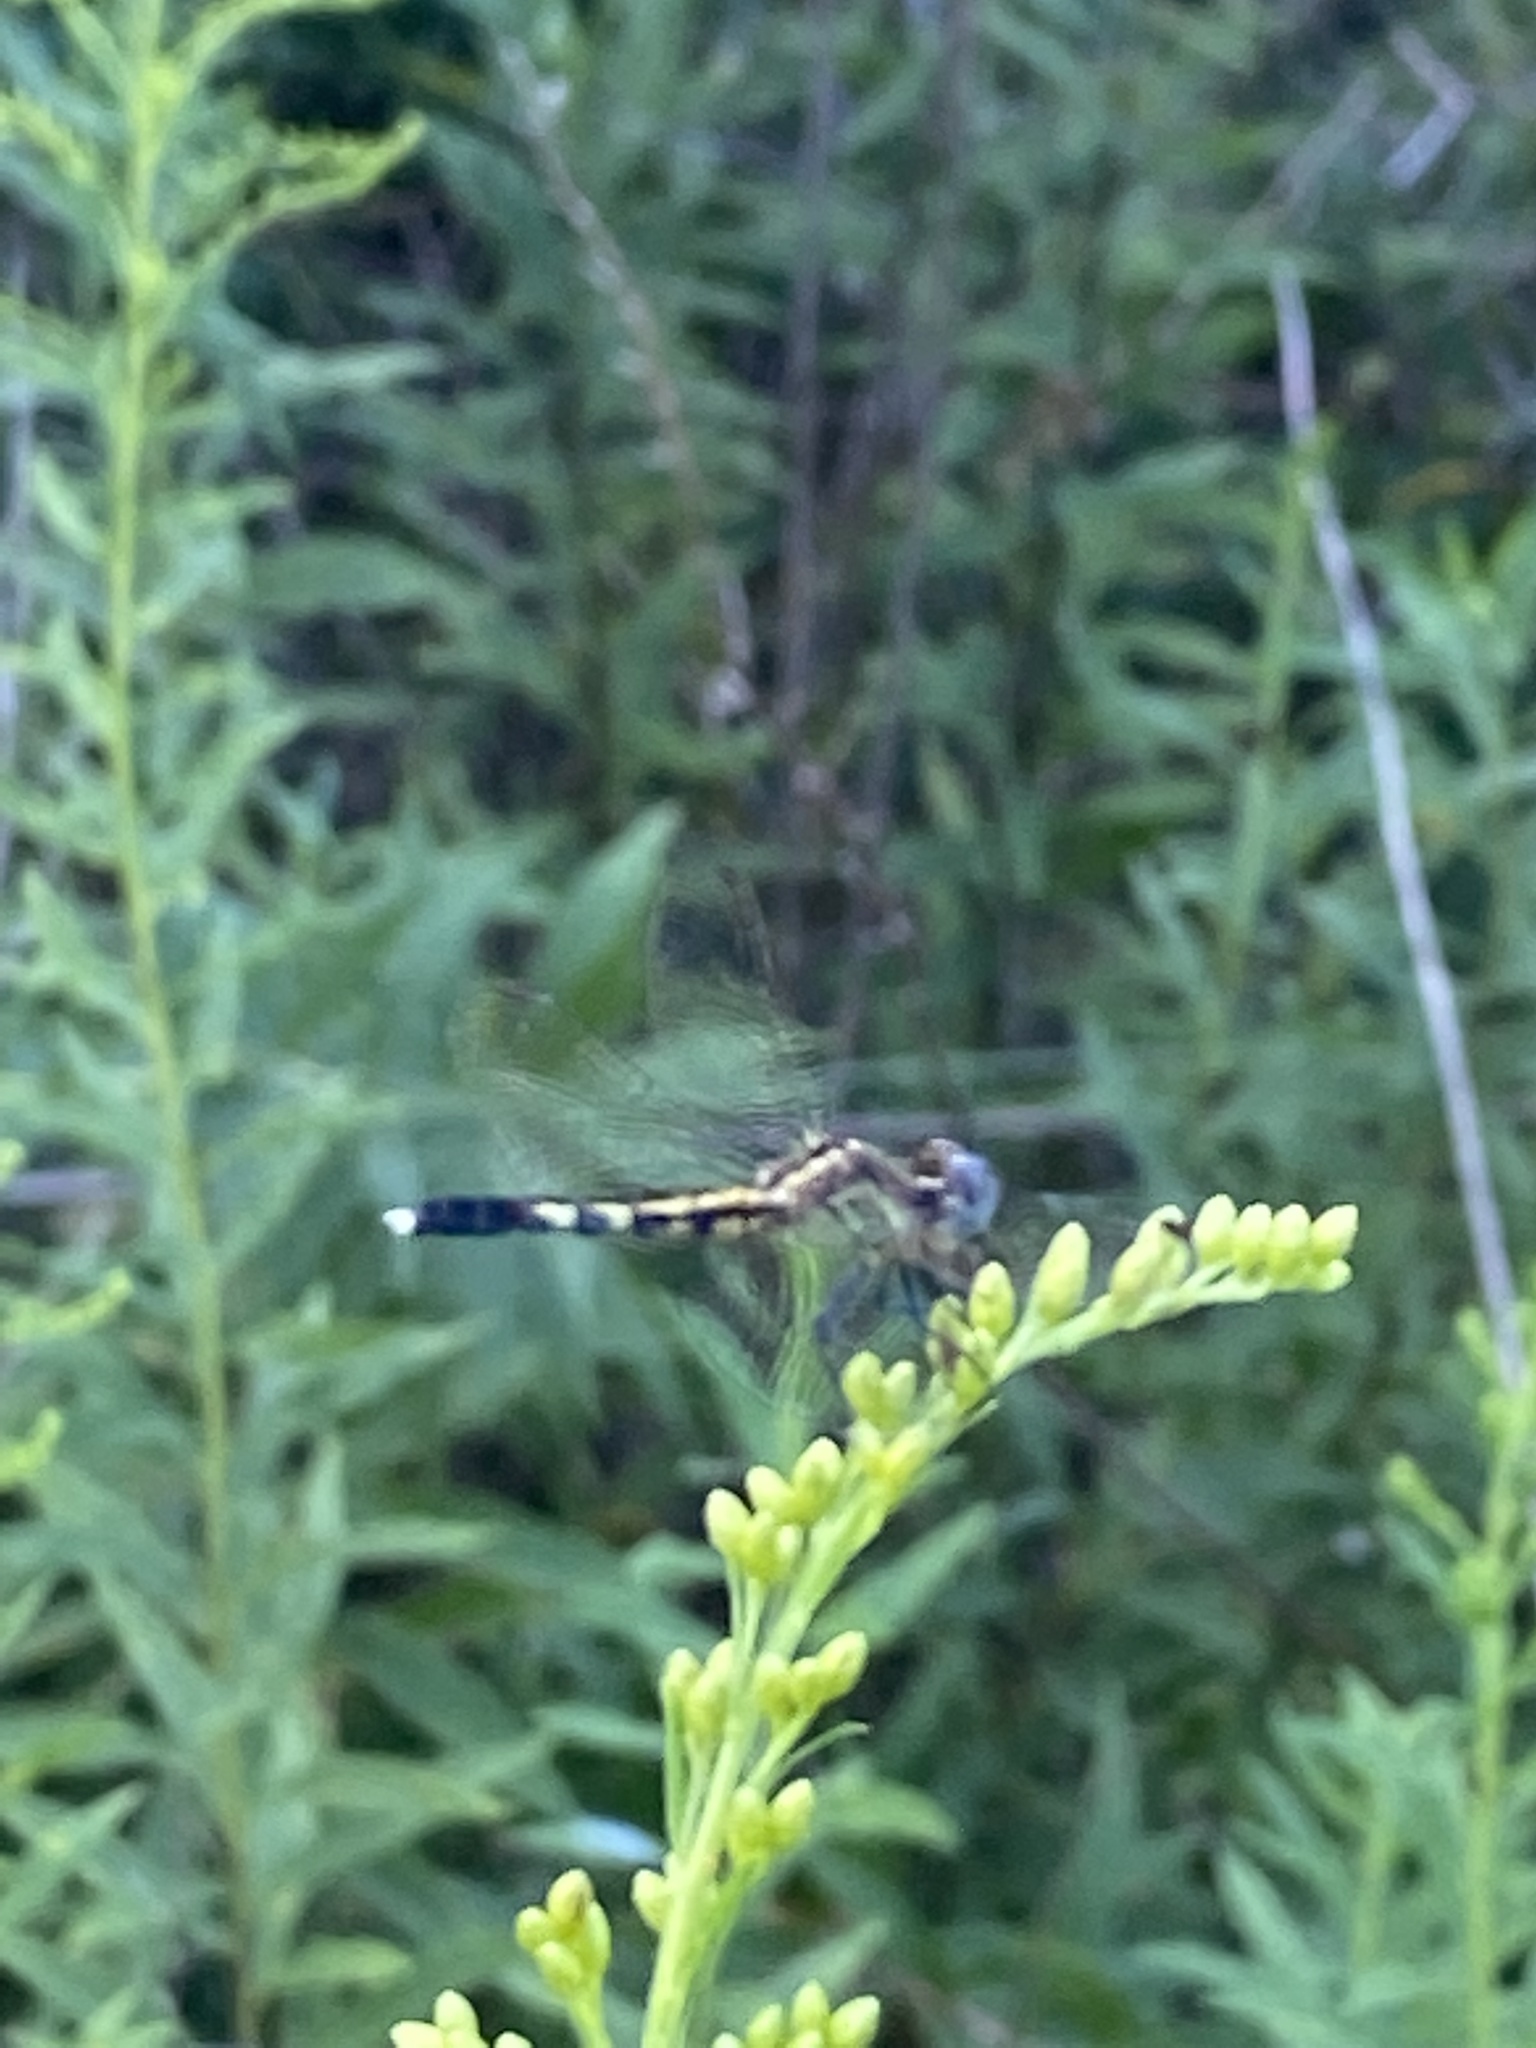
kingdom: Animalia
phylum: Arthropoda
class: Insecta
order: Odonata
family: Libellulidae
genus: Erythrodiplax
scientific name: Erythrodiplax minuscula
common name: Little blue dragonlet
